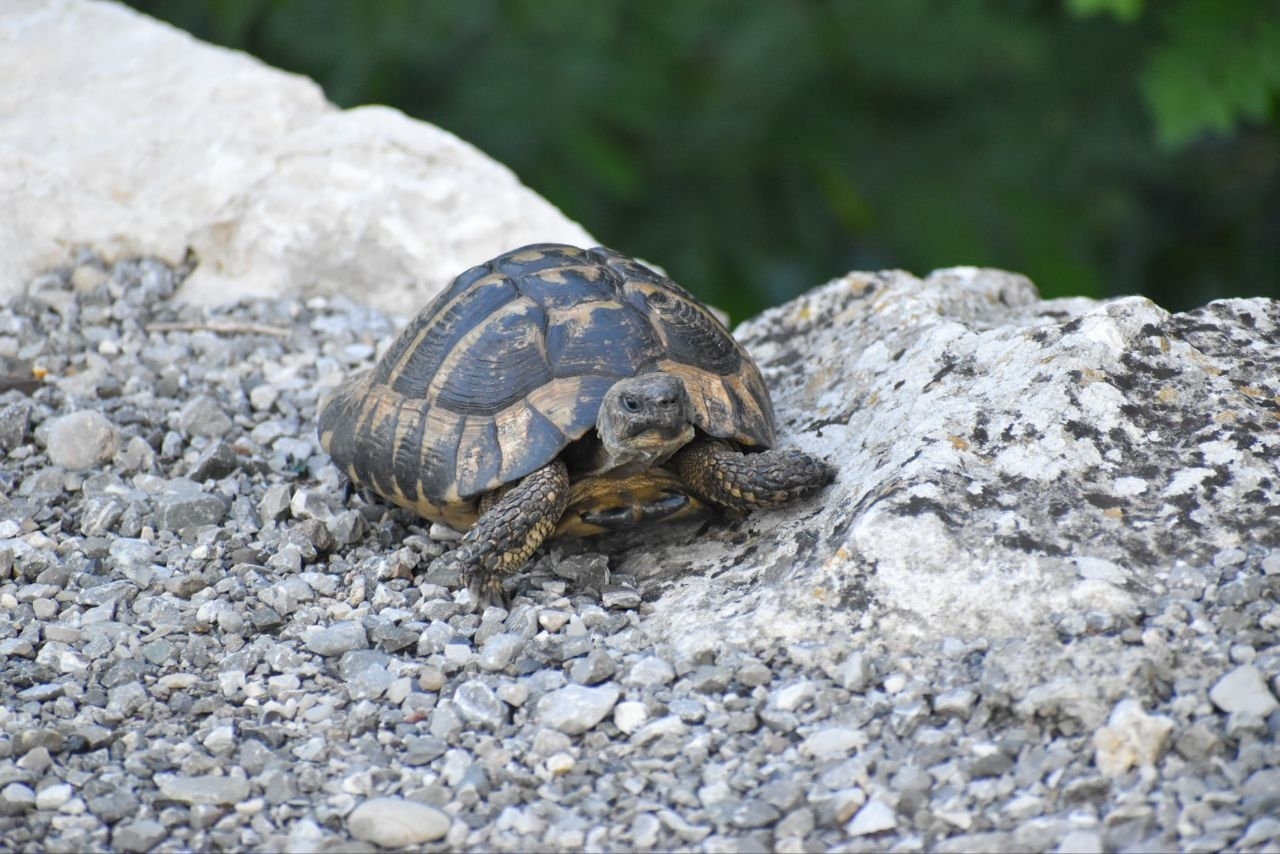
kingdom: Animalia
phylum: Chordata
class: Testudines
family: Testudinidae
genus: Testudo
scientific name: Testudo hermanni
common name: Hermann's tortoise
